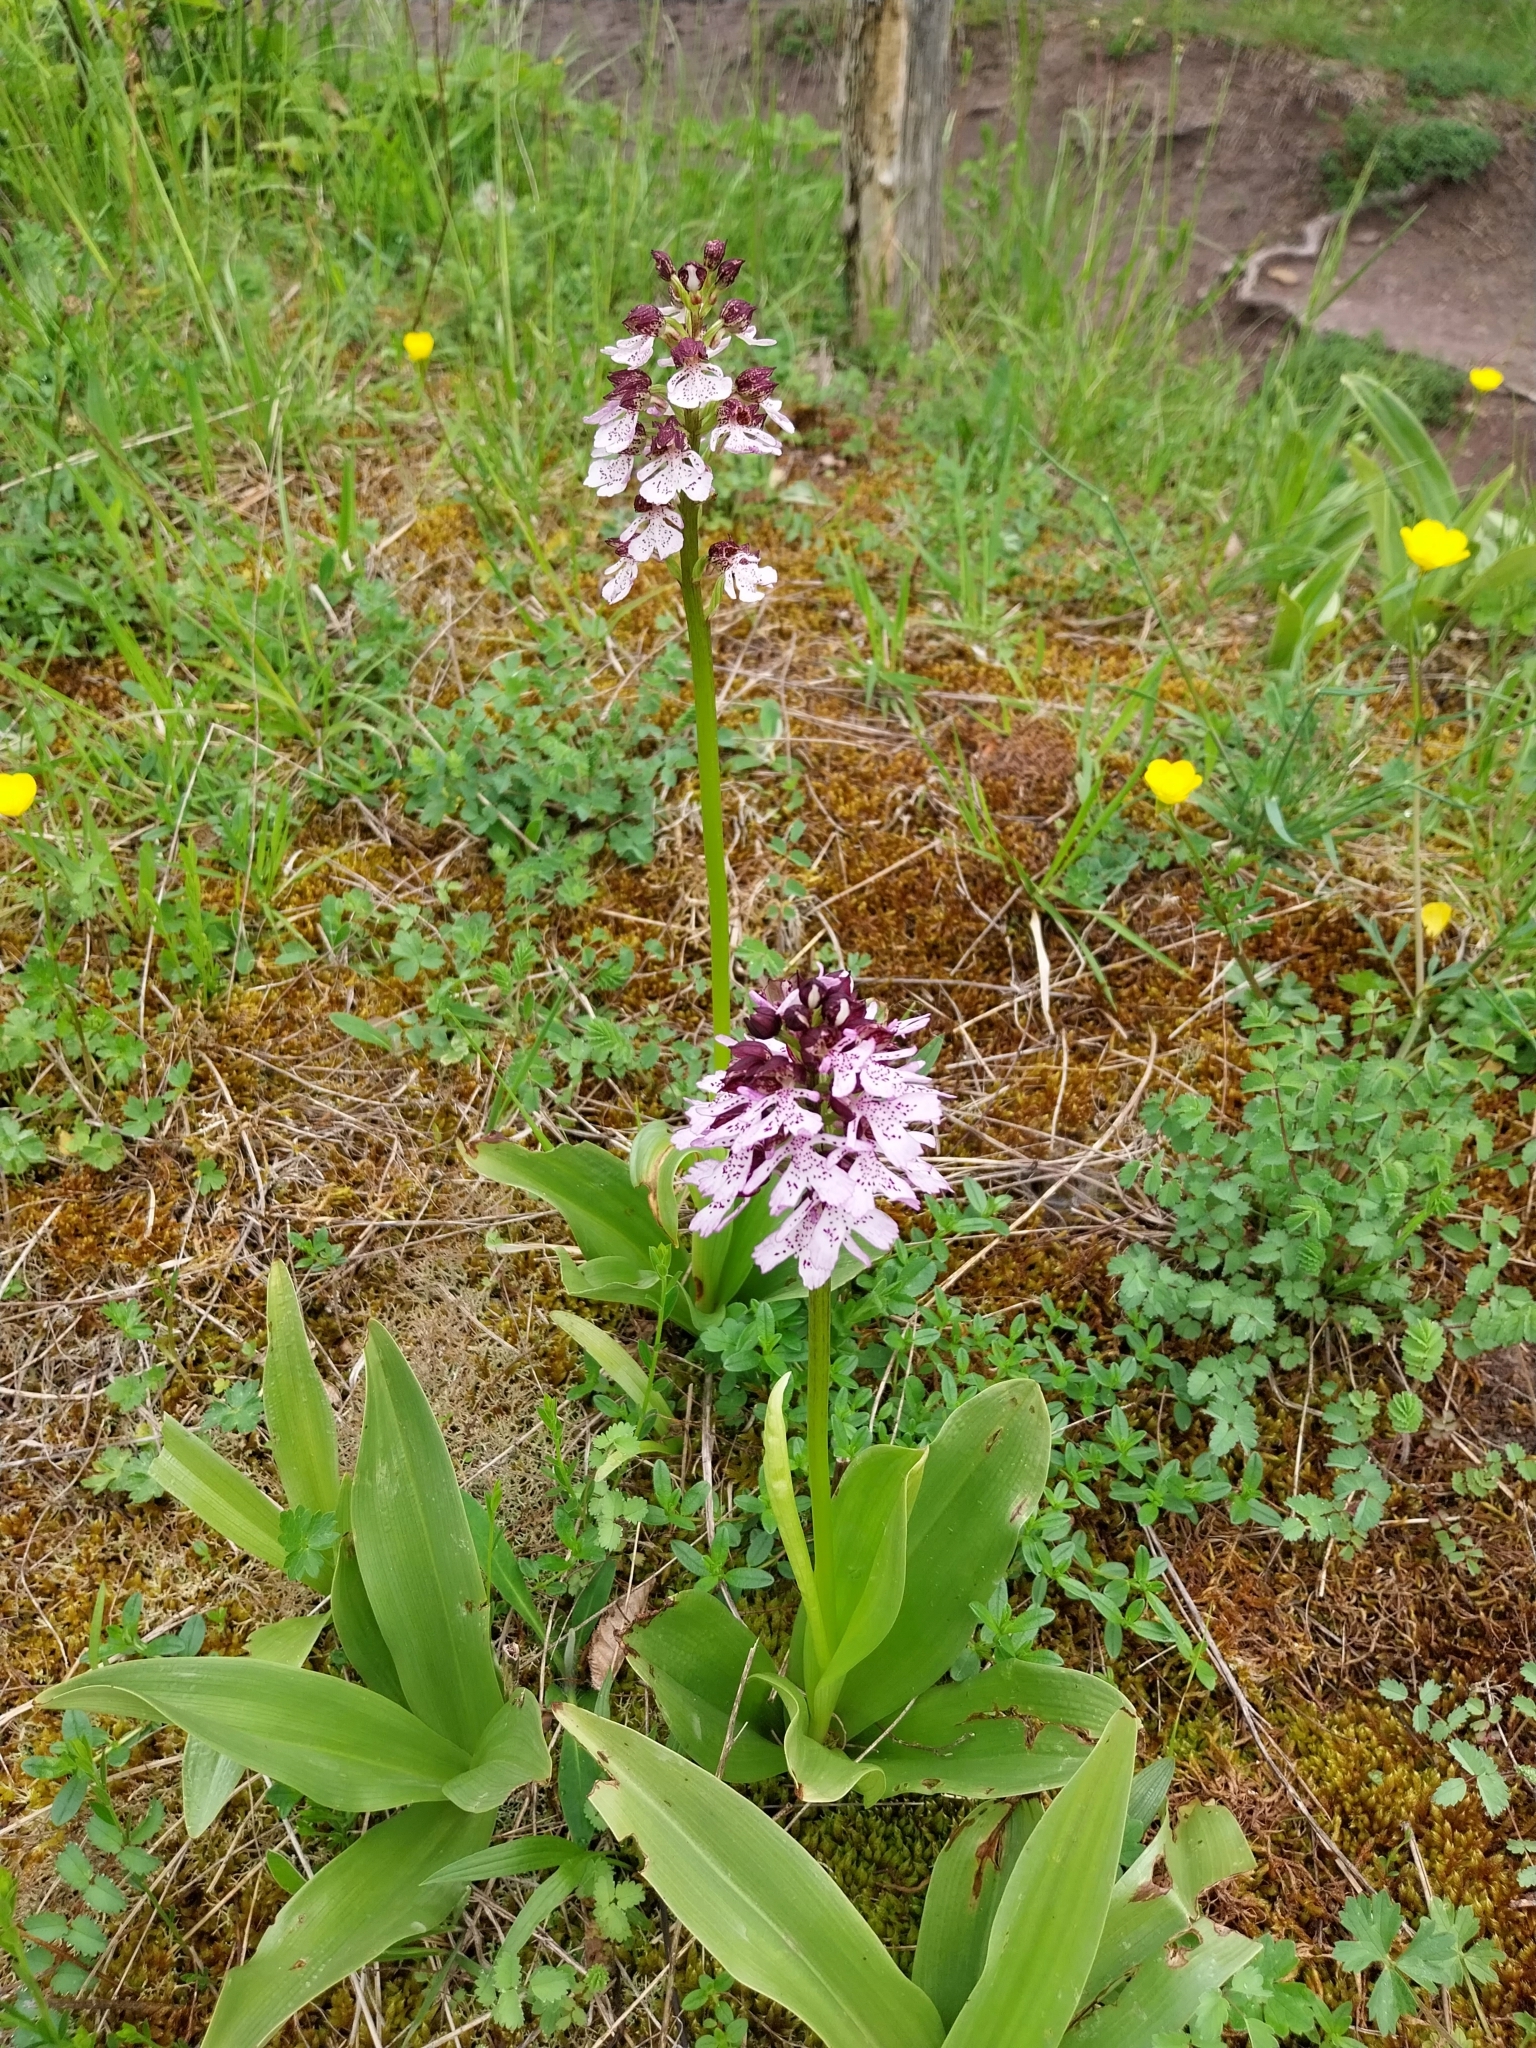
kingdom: Plantae
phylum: Tracheophyta
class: Liliopsida
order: Asparagales
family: Orchidaceae
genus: Orchis
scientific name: Orchis purpurea
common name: Lady orchid
